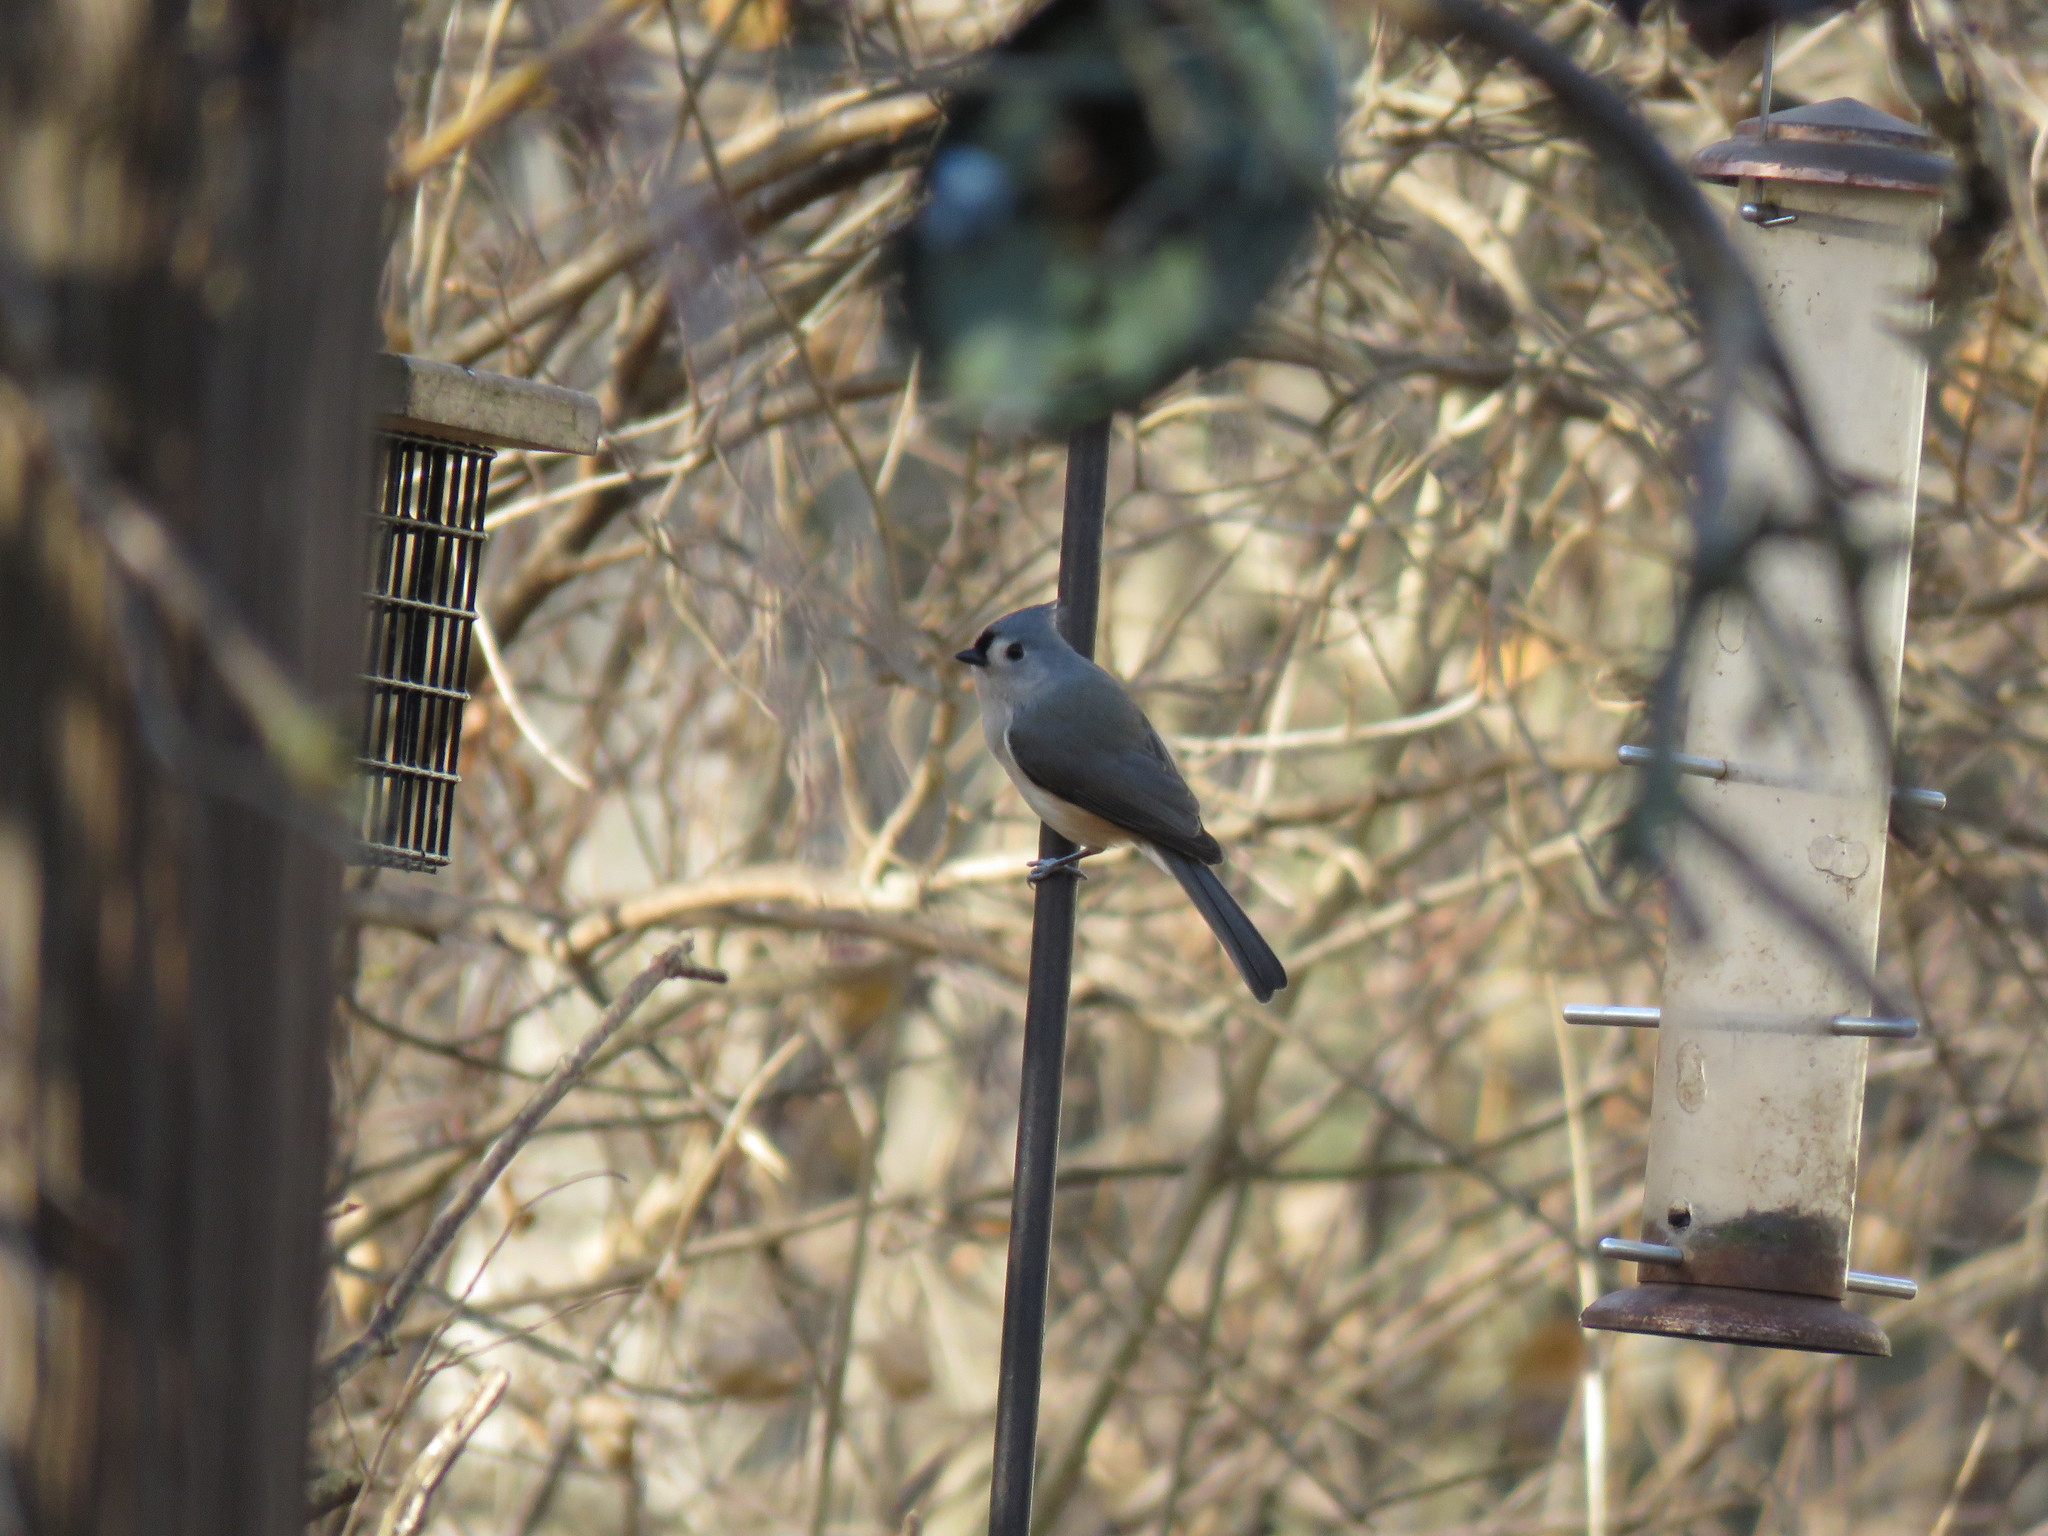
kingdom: Animalia
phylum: Chordata
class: Aves
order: Passeriformes
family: Paridae
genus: Baeolophus
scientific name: Baeolophus bicolor
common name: Tufted titmouse
